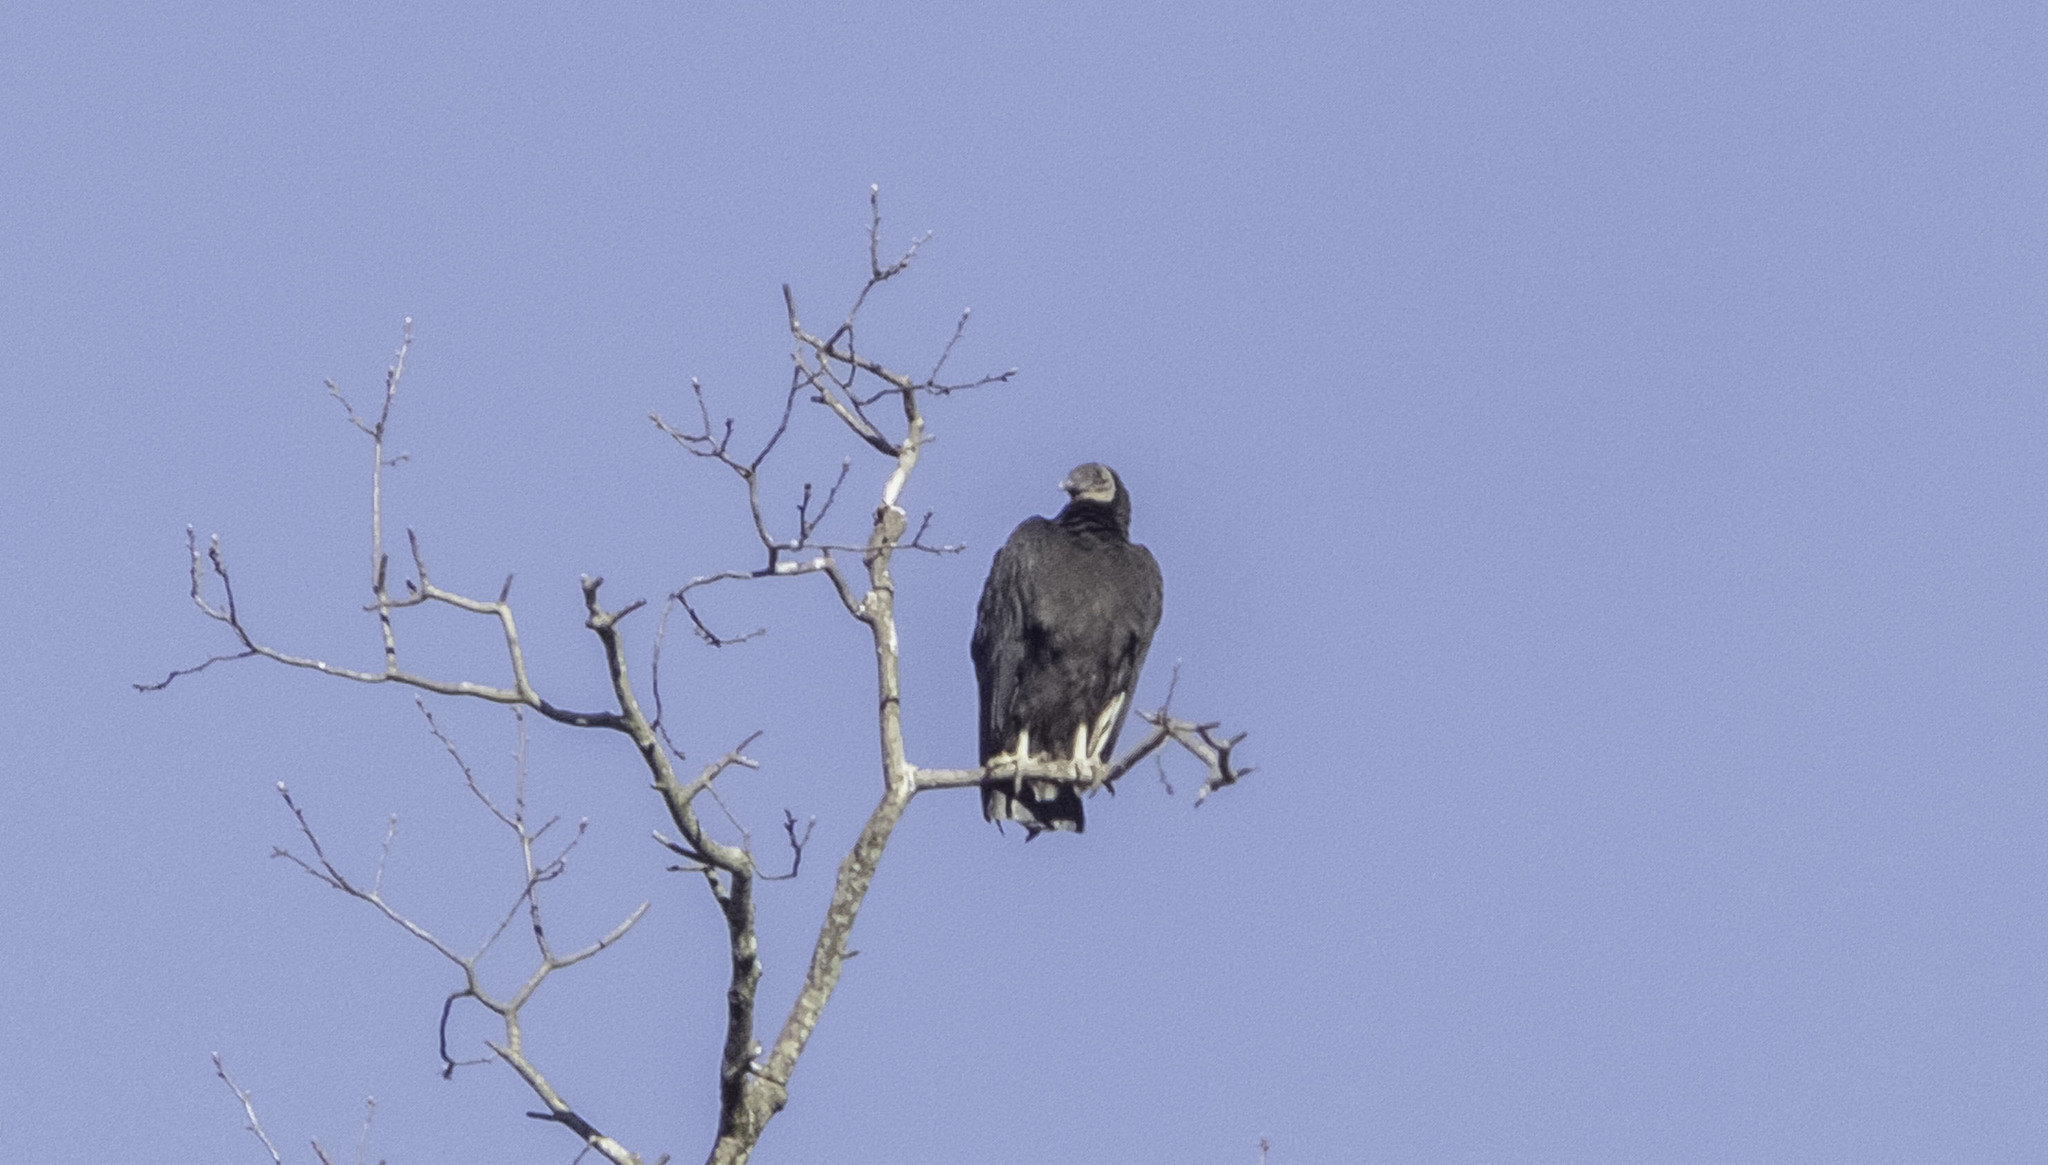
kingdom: Animalia
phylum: Chordata
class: Aves
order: Accipitriformes
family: Cathartidae
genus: Coragyps
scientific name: Coragyps atratus
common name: Black vulture
